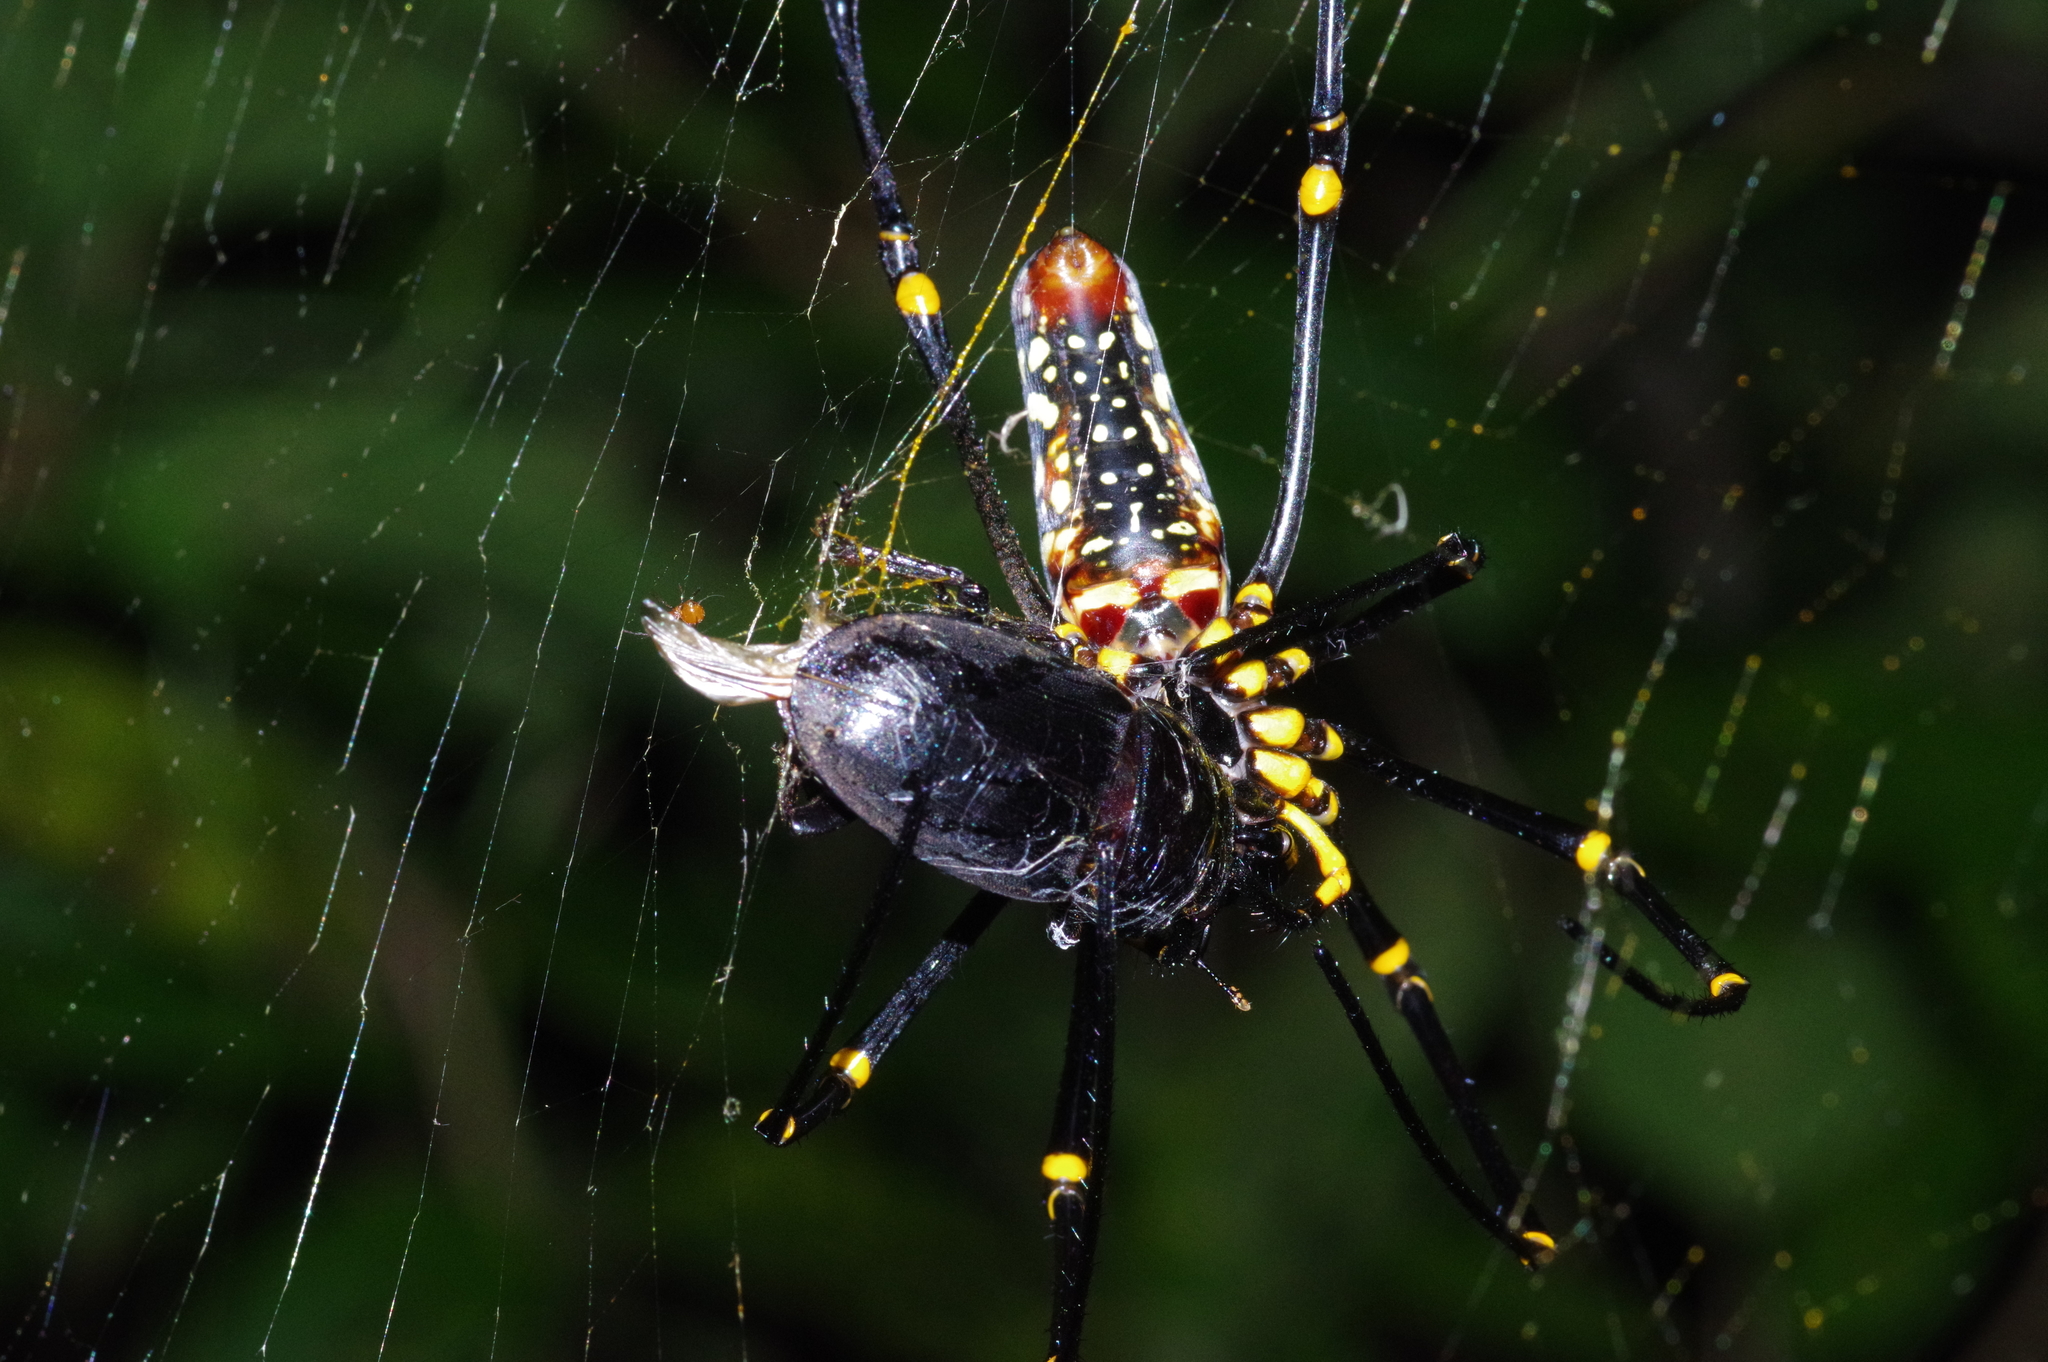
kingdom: Animalia
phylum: Arthropoda
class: Arachnida
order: Araneae
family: Araneidae
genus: Nephila
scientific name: Nephila pilipes
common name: Giant golden orb weaver
